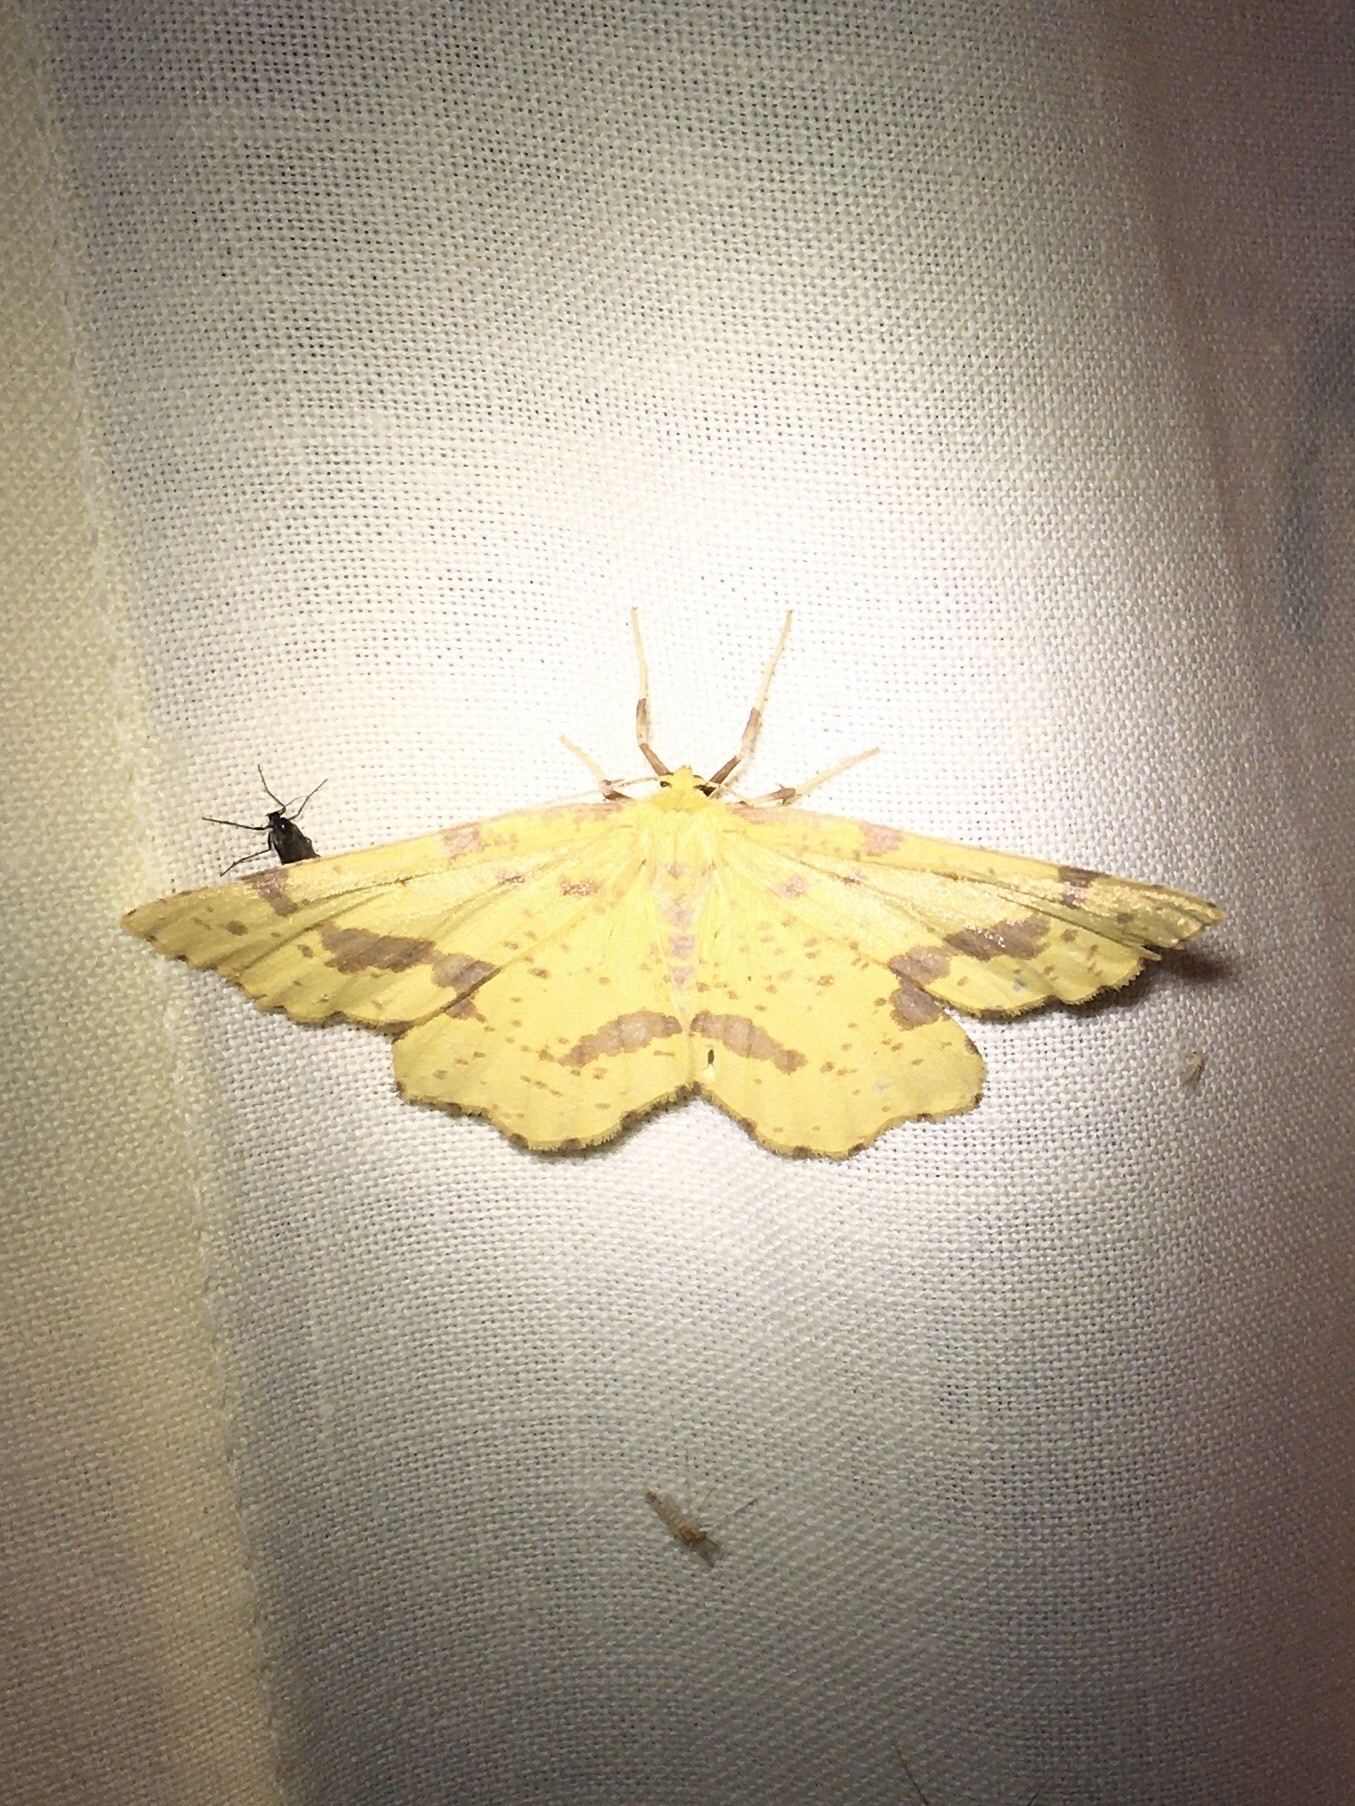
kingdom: Animalia
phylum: Arthropoda
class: Insecta
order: Lepidoptera
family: Geometridae
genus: Xanthotype
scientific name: Xanthotype
